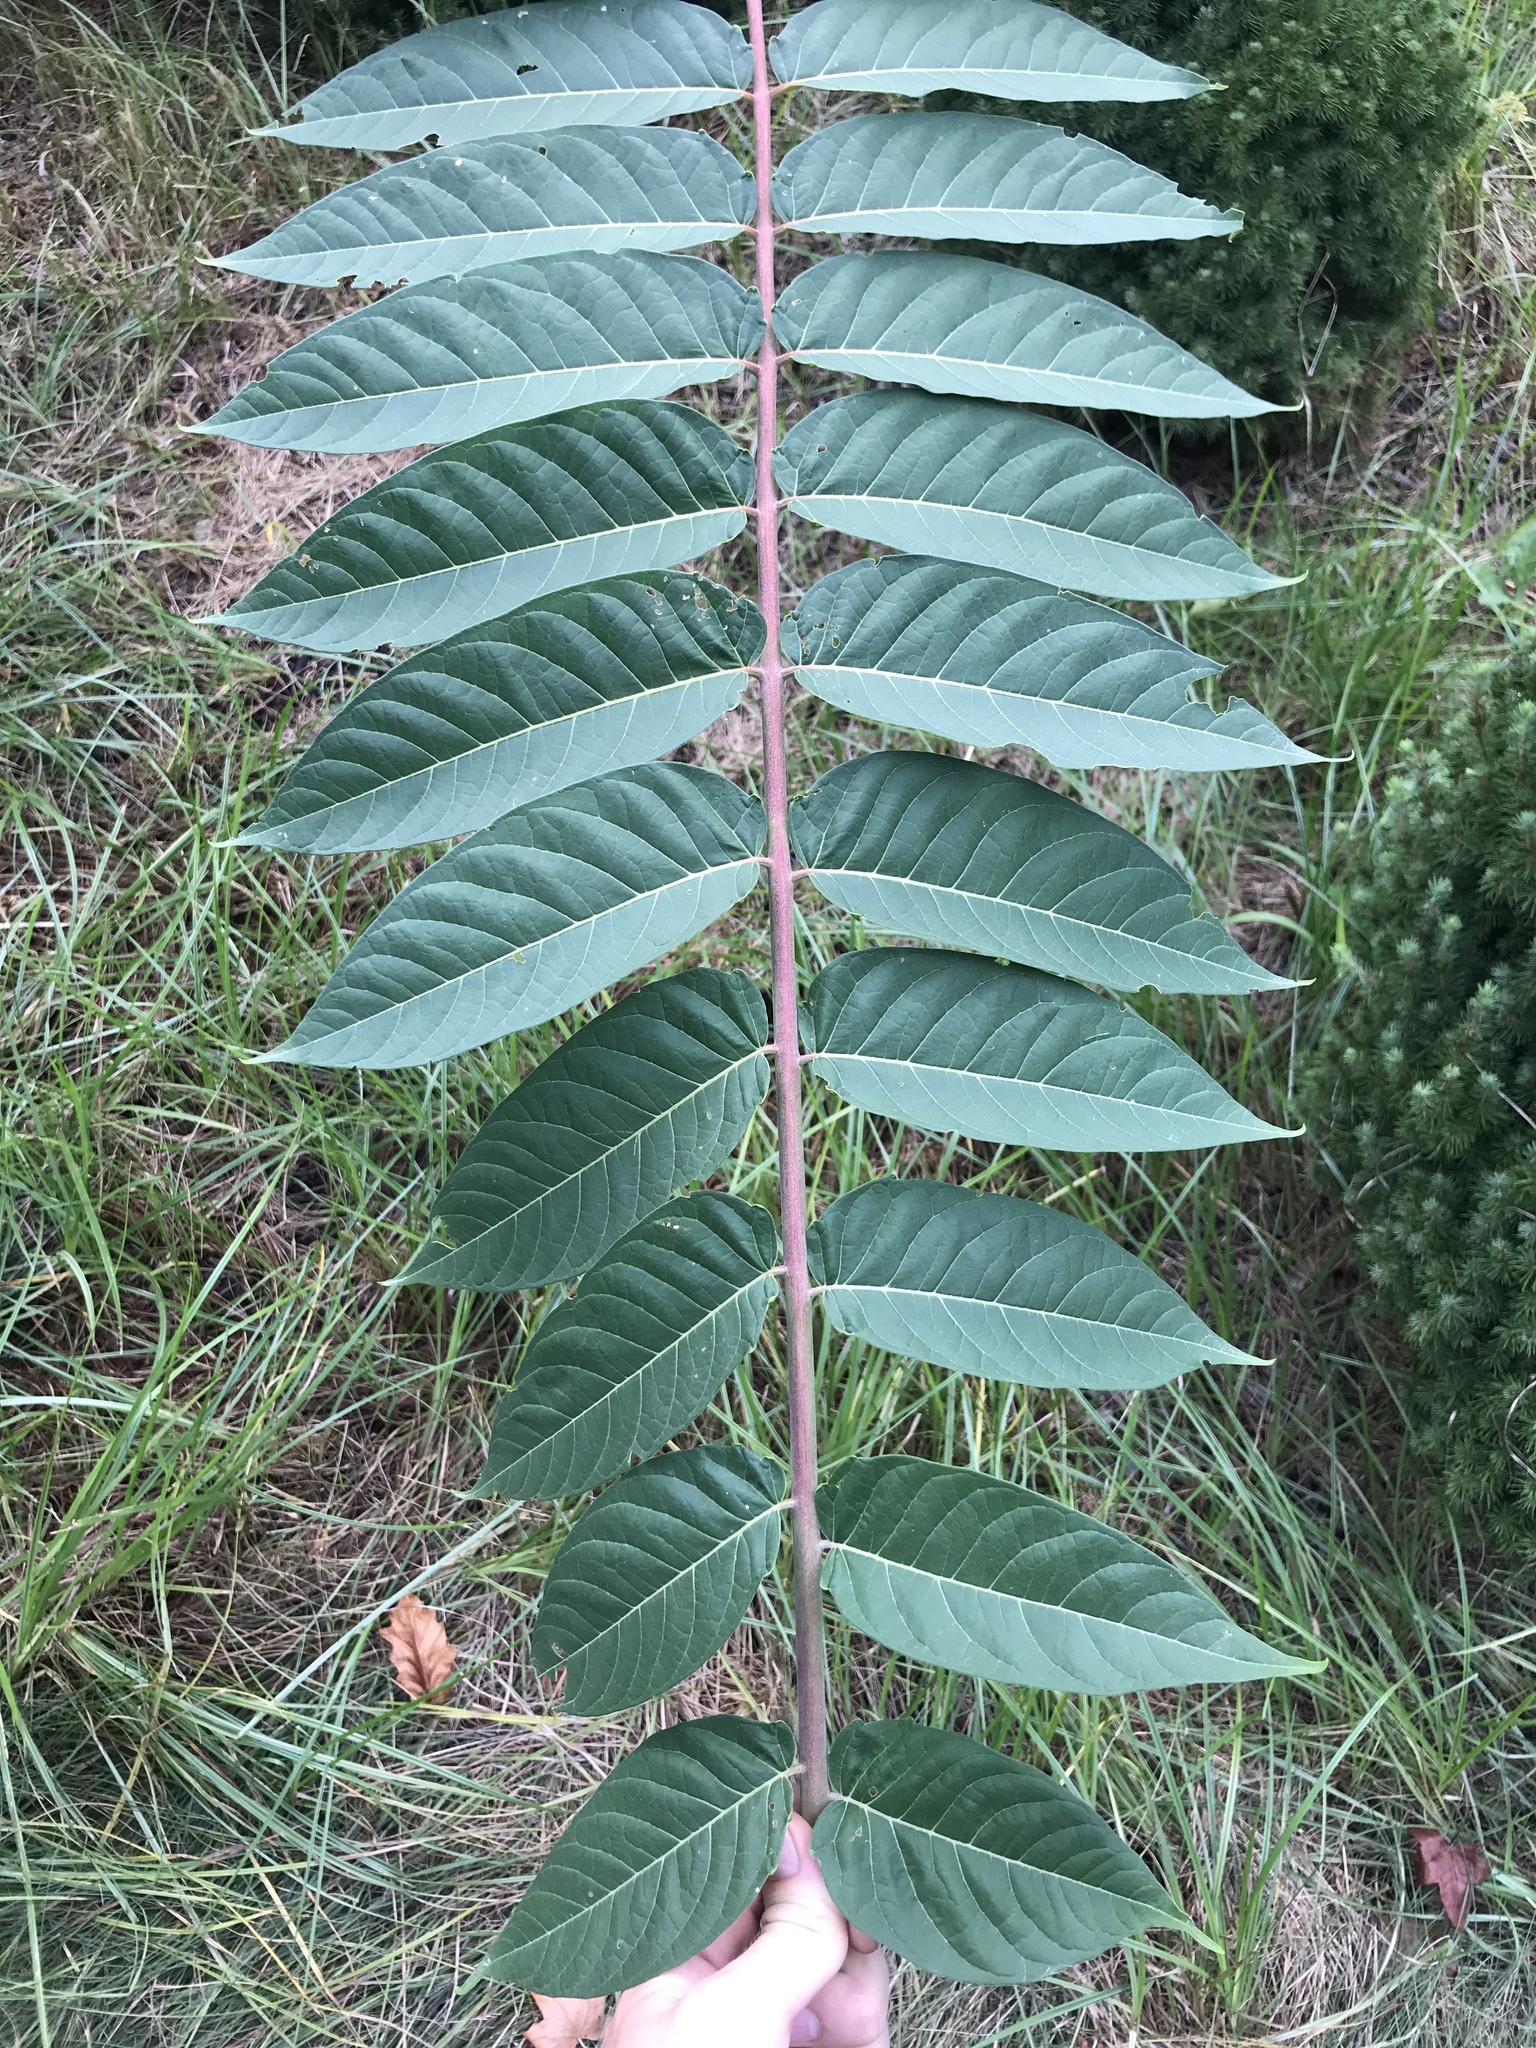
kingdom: Plantae
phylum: Tracheophyta
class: Magnoliopsida
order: Sapindales
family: Simaroubaceae
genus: Ailanthus
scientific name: Ailanthus altissima
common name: Tree-of-heaven
